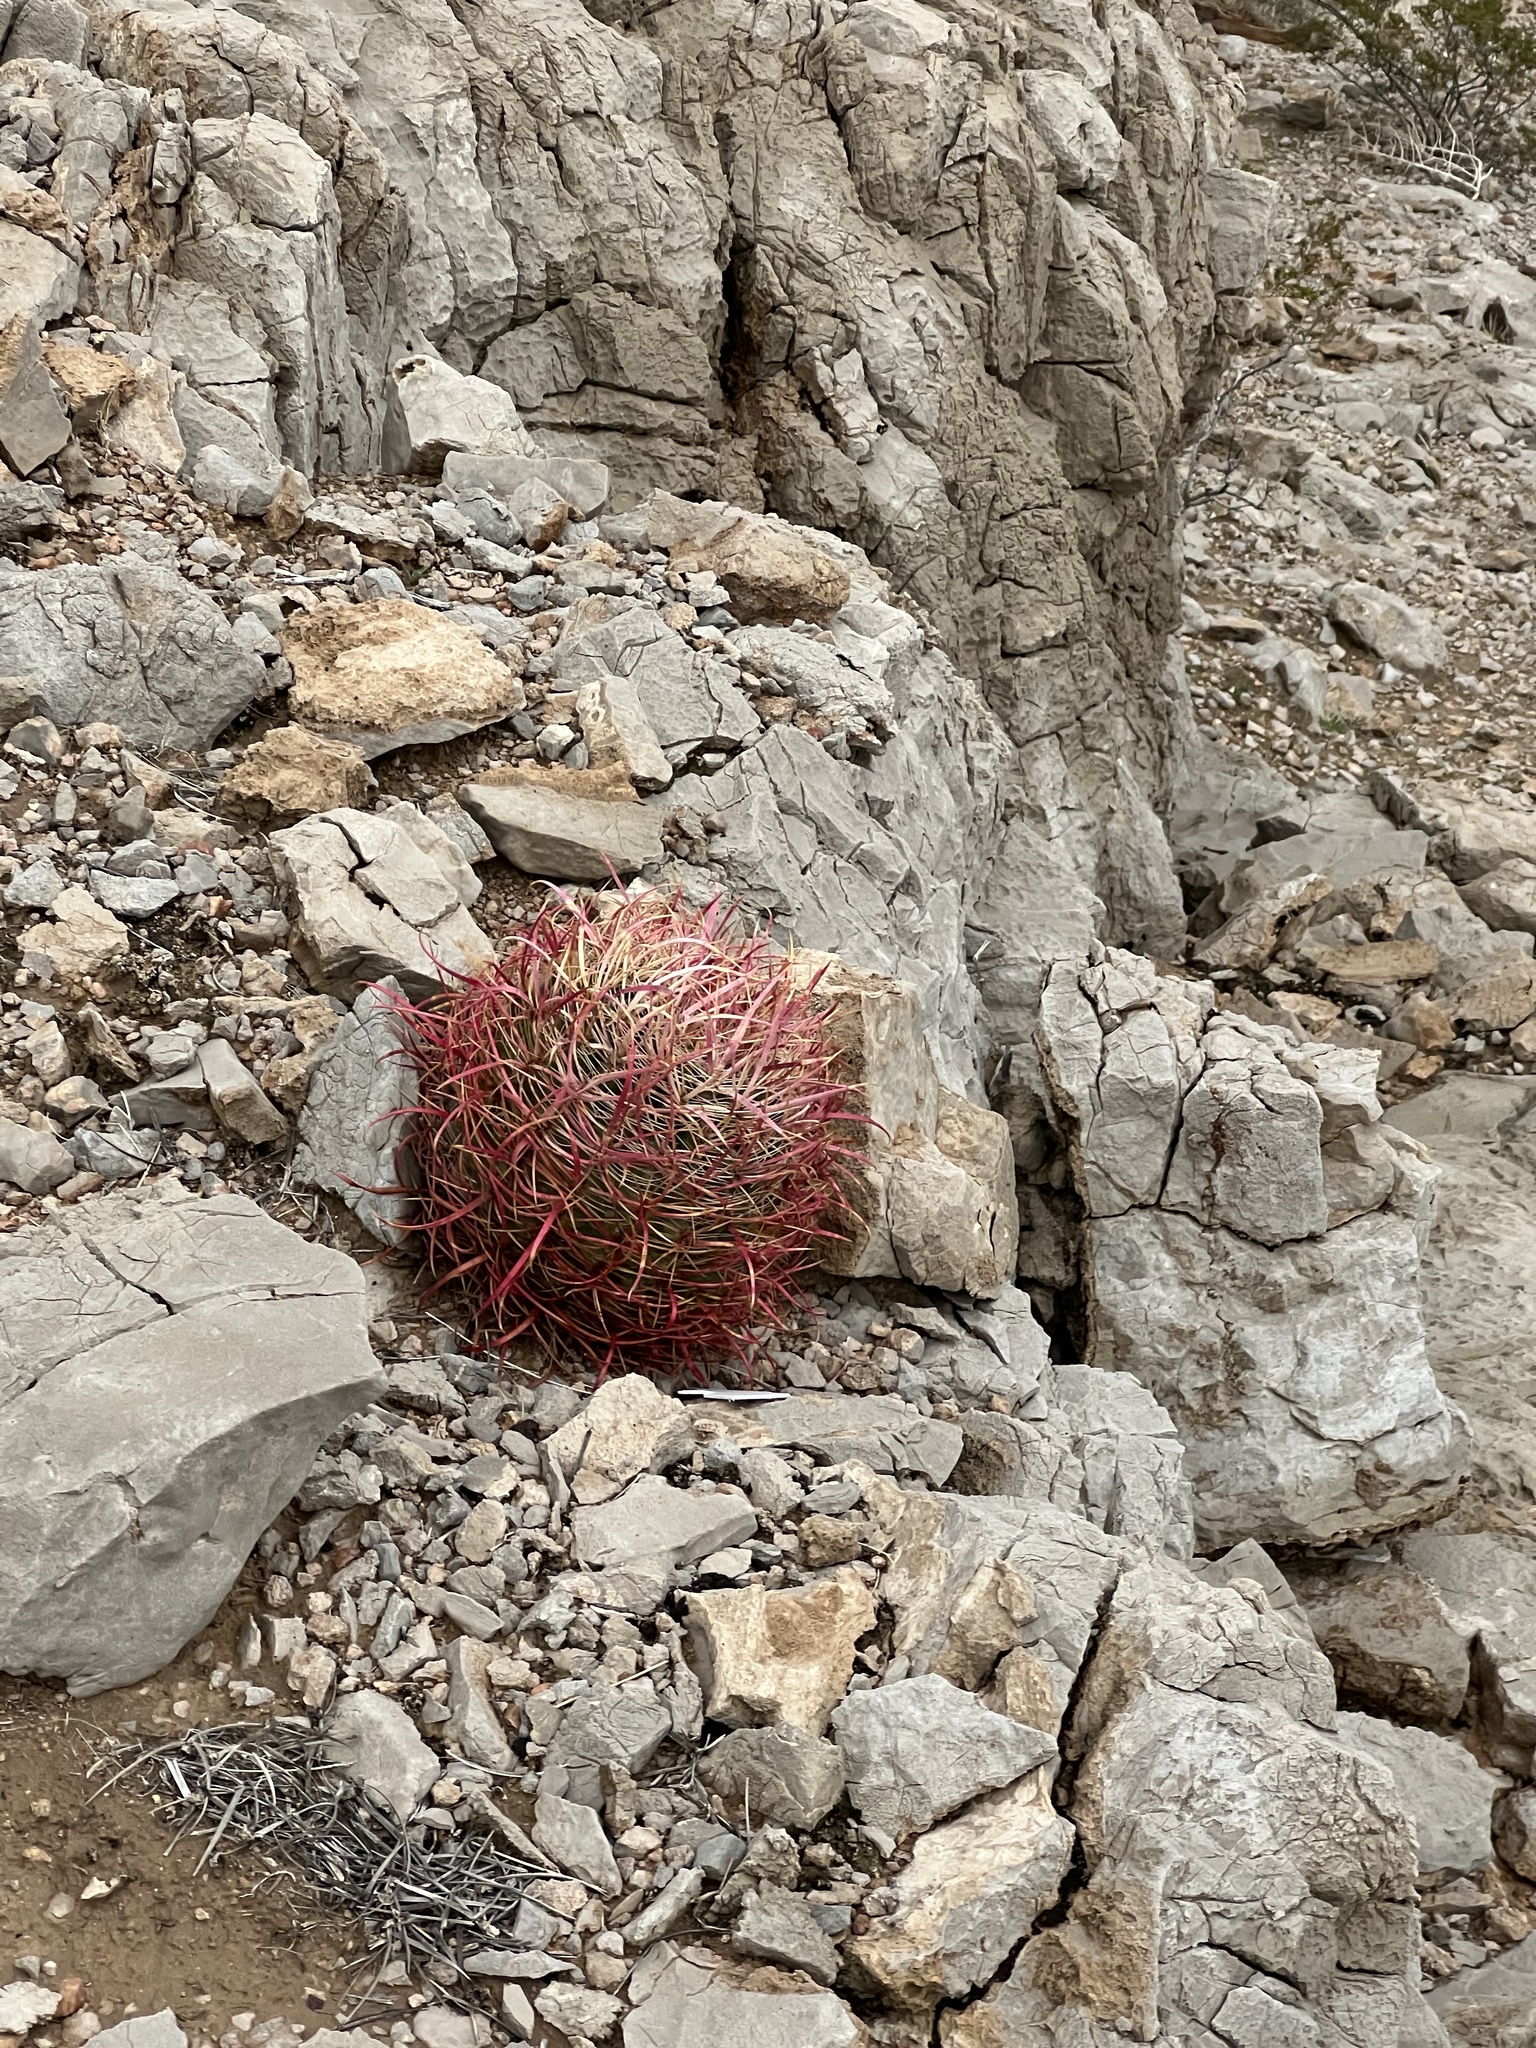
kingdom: Plantae
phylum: Tracheophyta
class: Magnoliopsida
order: Caryophyllales
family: Cactaceae
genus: Ferocactus
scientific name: Ferocactus cylindraceus
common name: California barrel cactus
